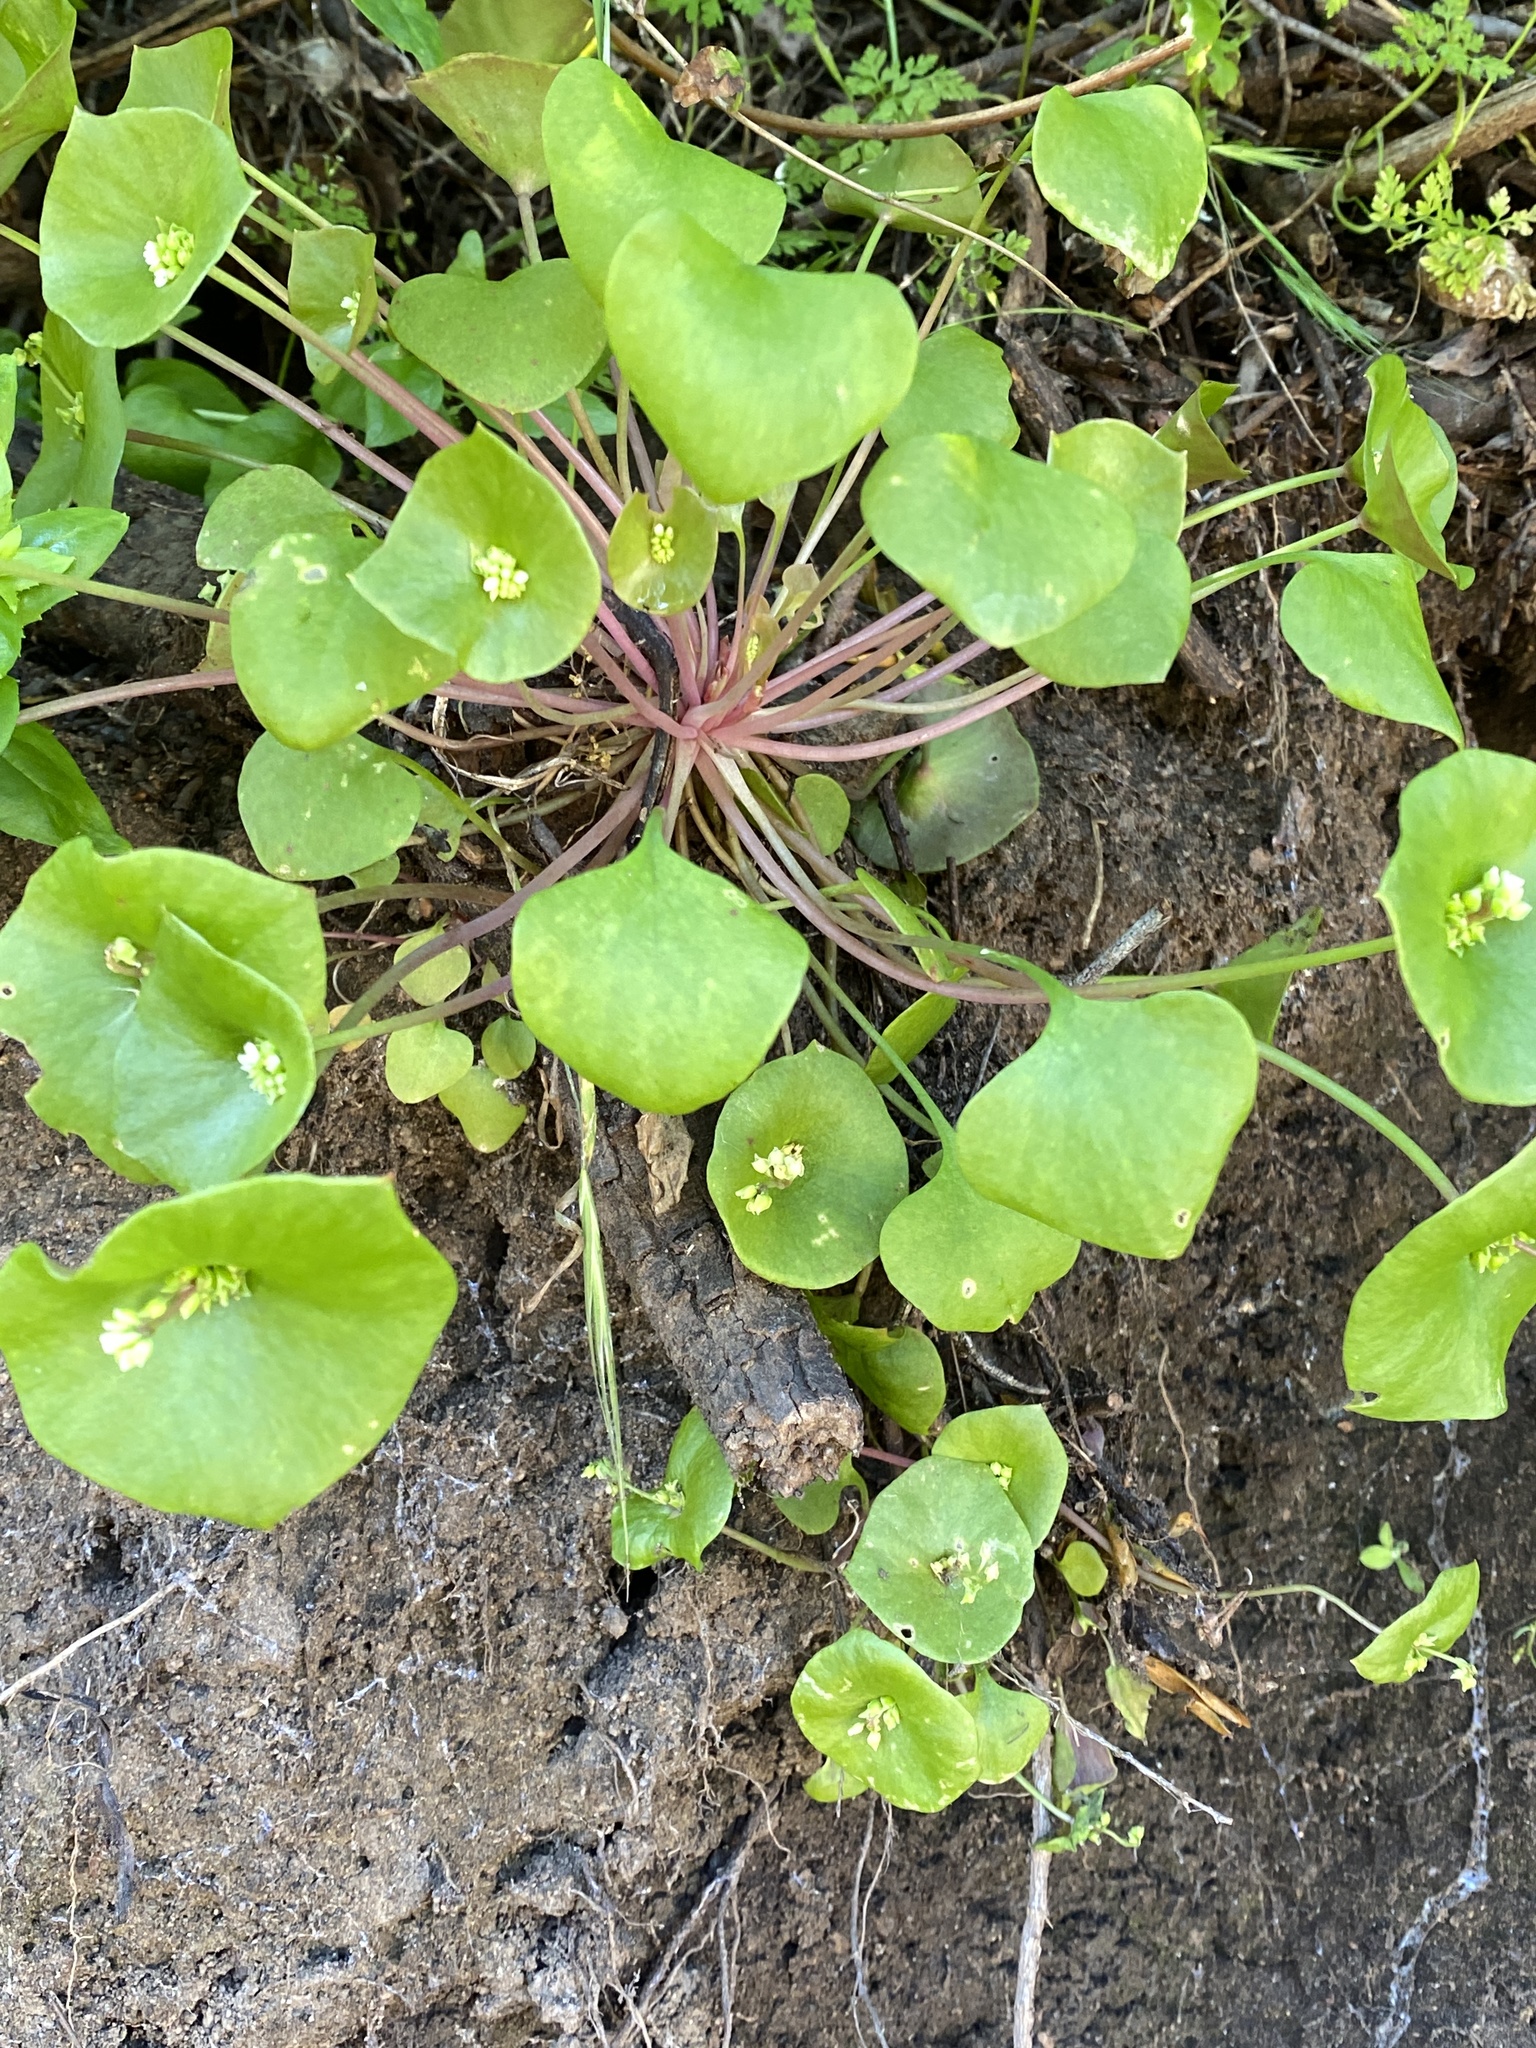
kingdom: Plantae
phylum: Tracheophyta
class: Magnoliopsida
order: Caryophyllales
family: Montiaceae
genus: Claytonia
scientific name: Claytonia perfoliata
